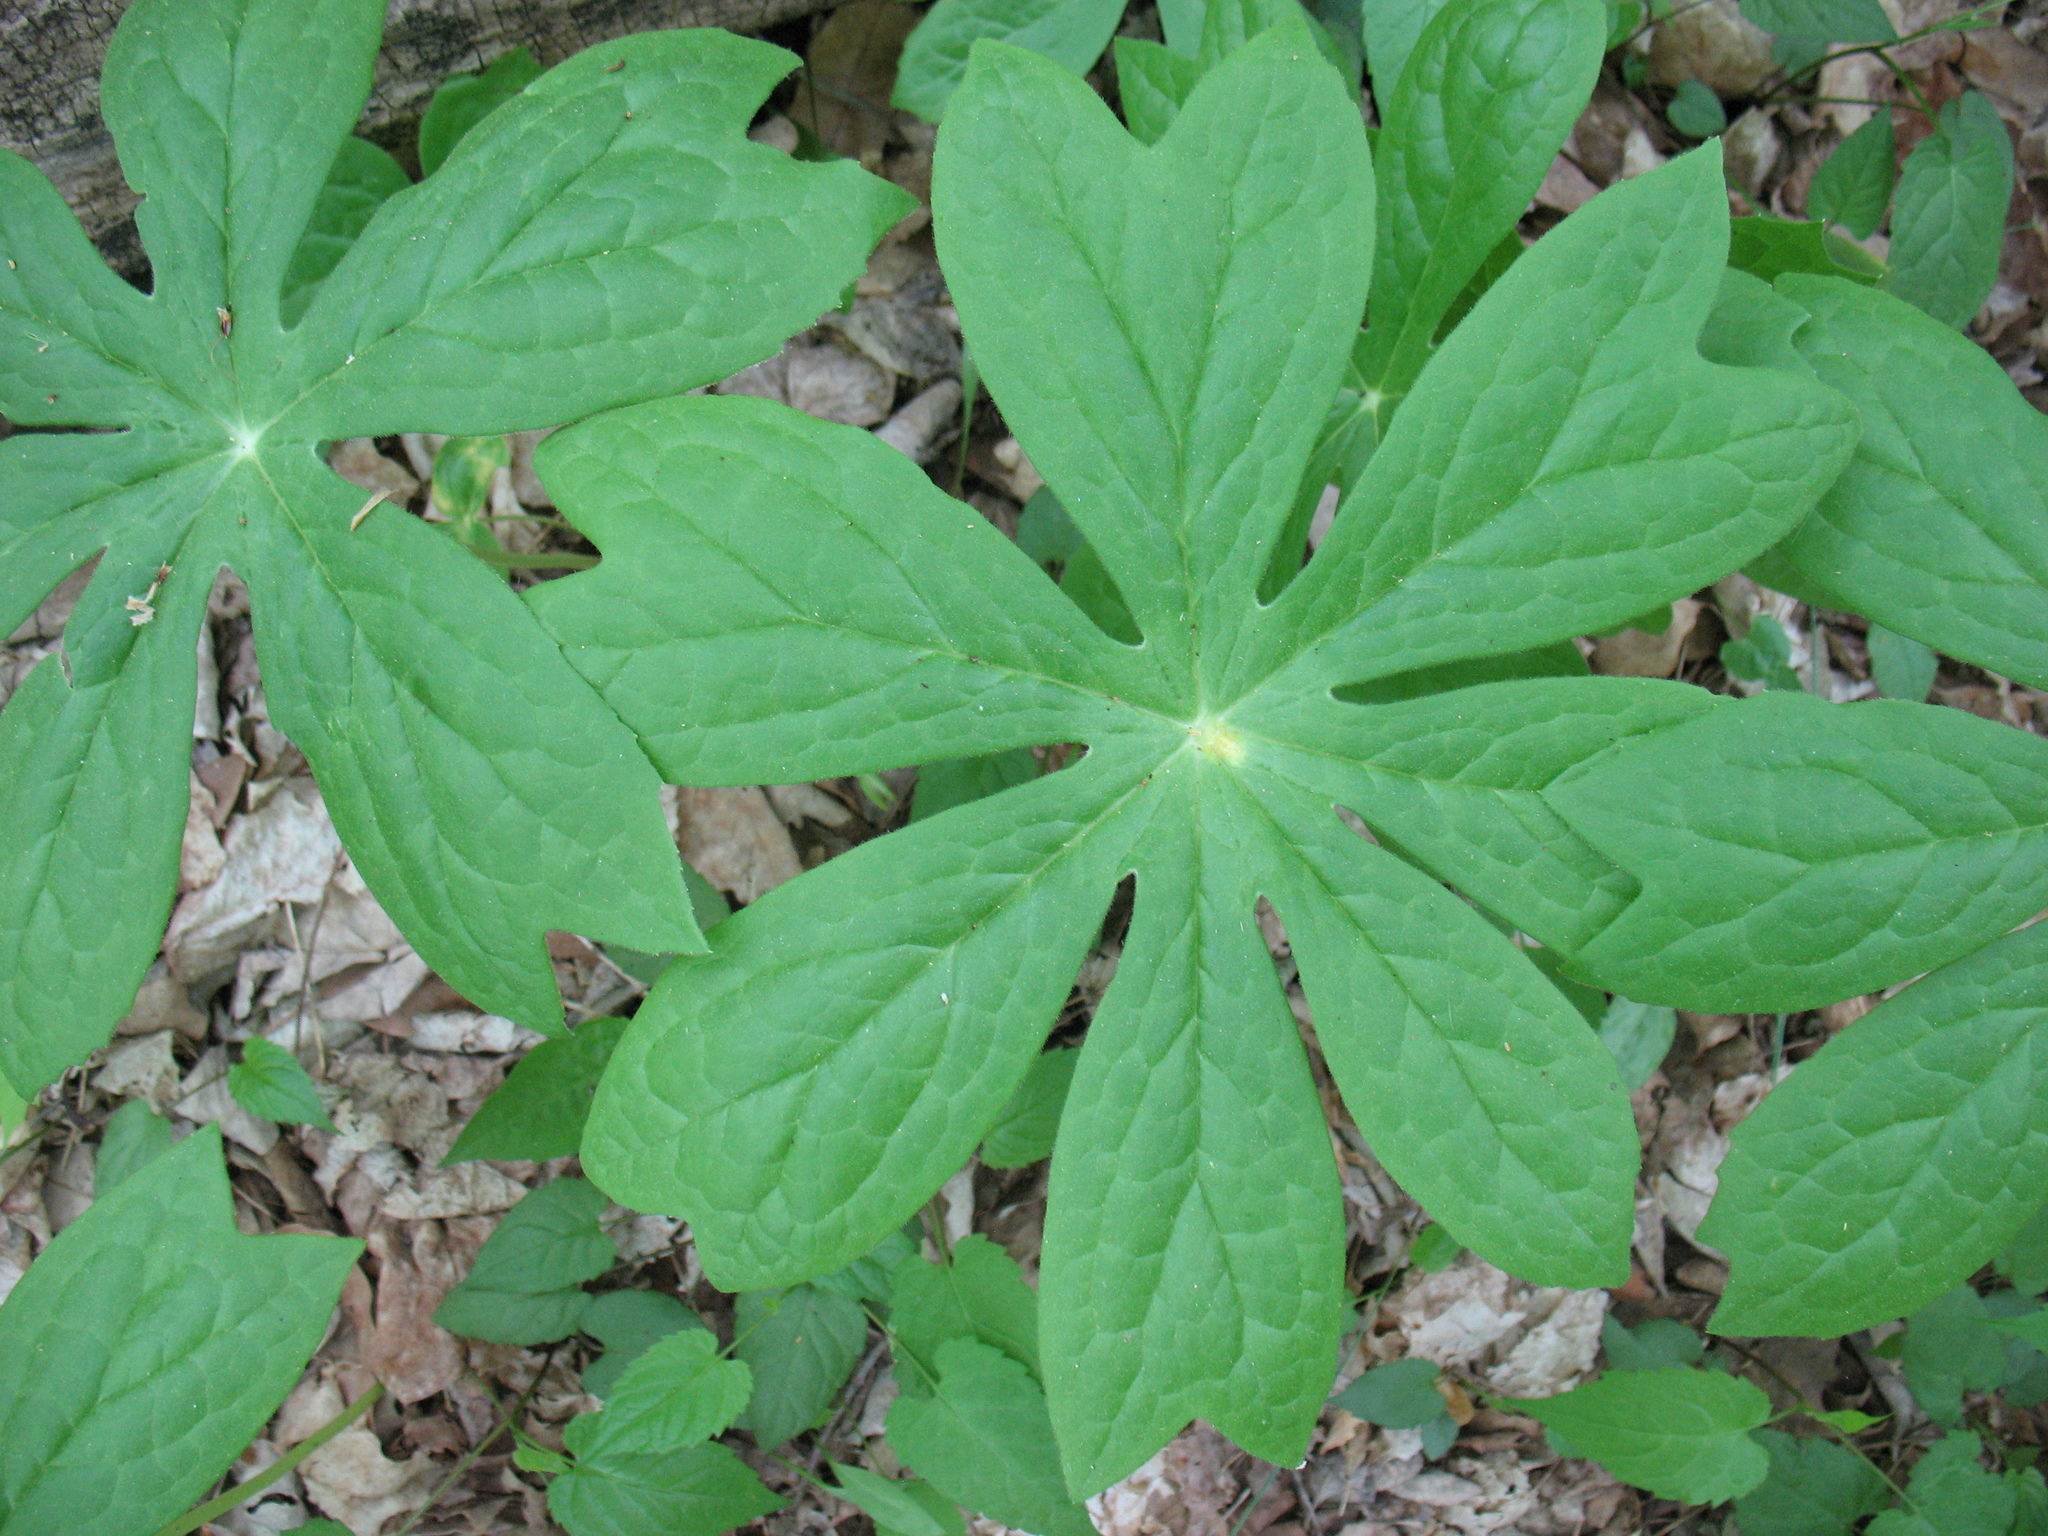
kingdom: Plantae
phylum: Tracheophyta
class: Magnoliopsida
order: Ranunculales
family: Berberidaceae
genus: Podophyllum
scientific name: Podophyllum peltatum
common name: Wild mandrake
